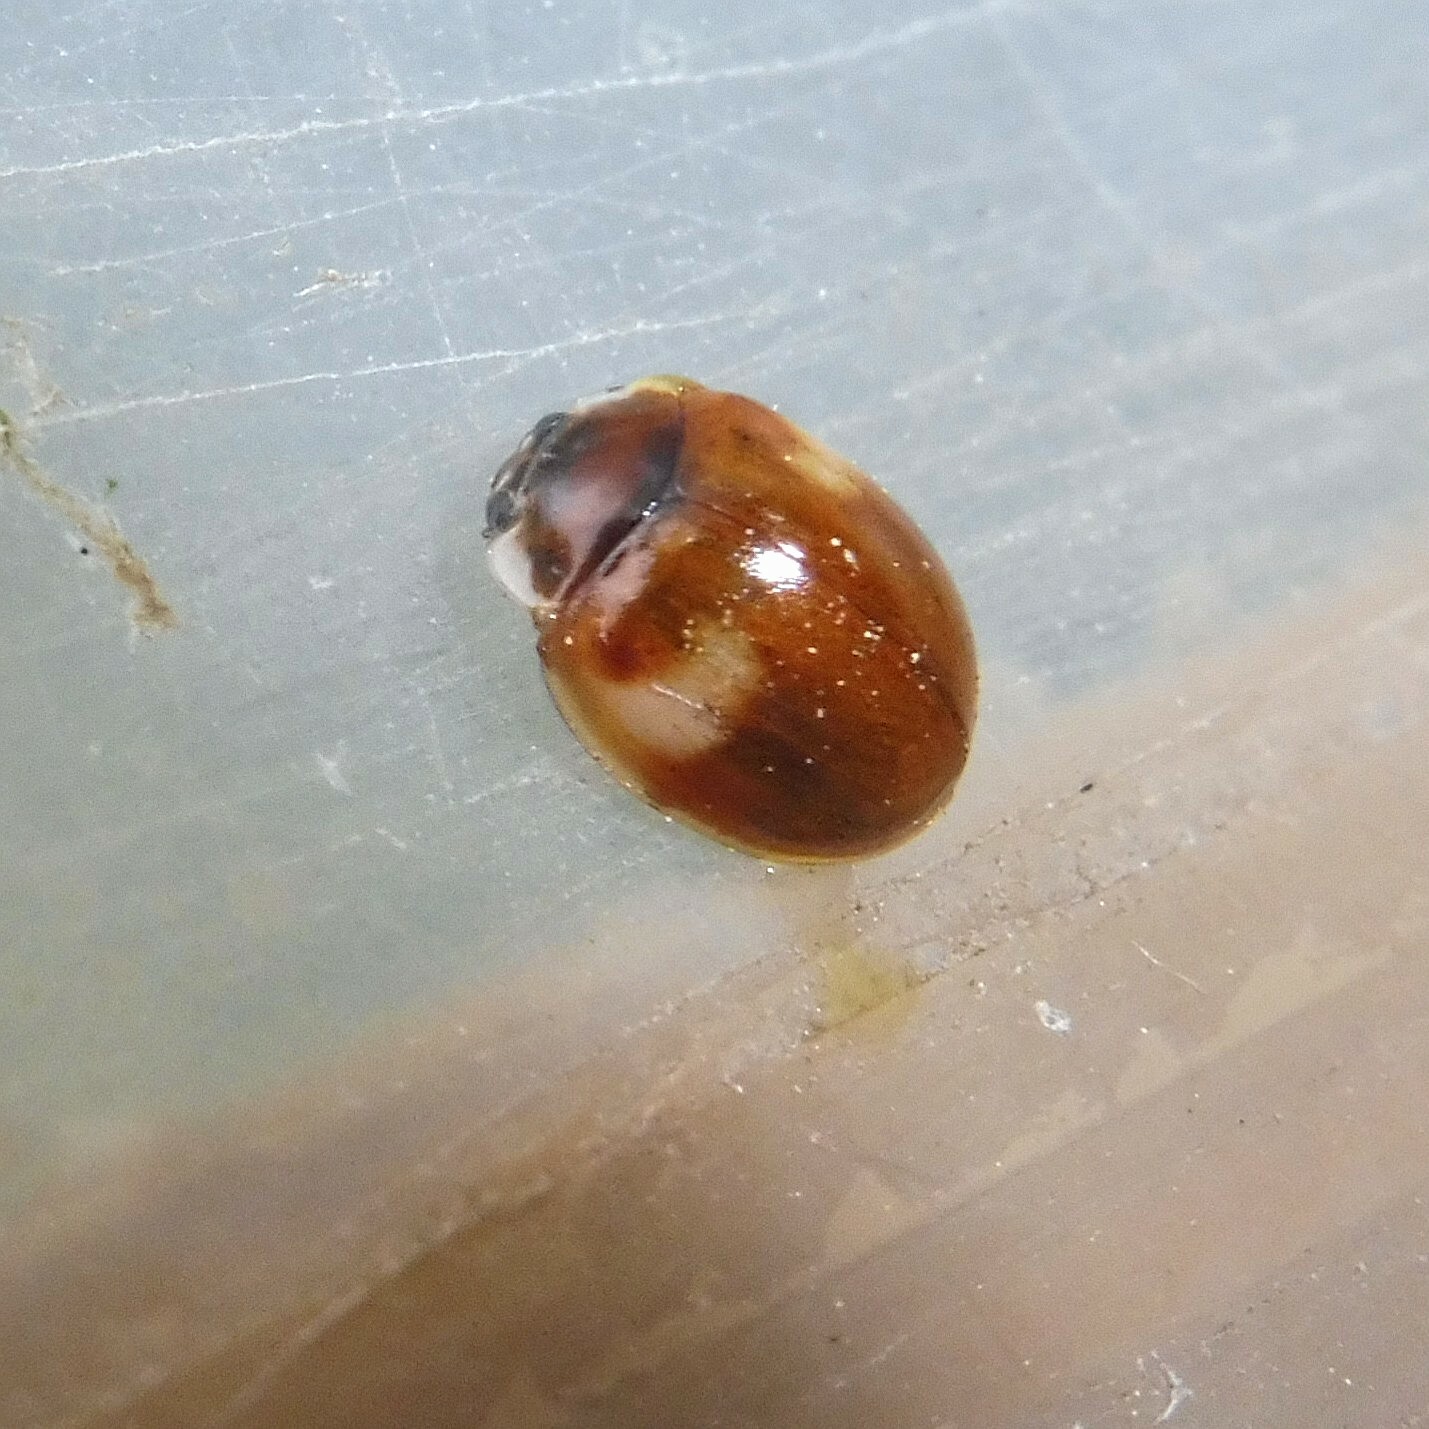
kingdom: Animalia
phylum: Arthropoda
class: Insecta
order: Coleoptera
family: Coccinellidae
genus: Adalia
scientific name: Adalia decempunctata
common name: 10-spot ladybird
